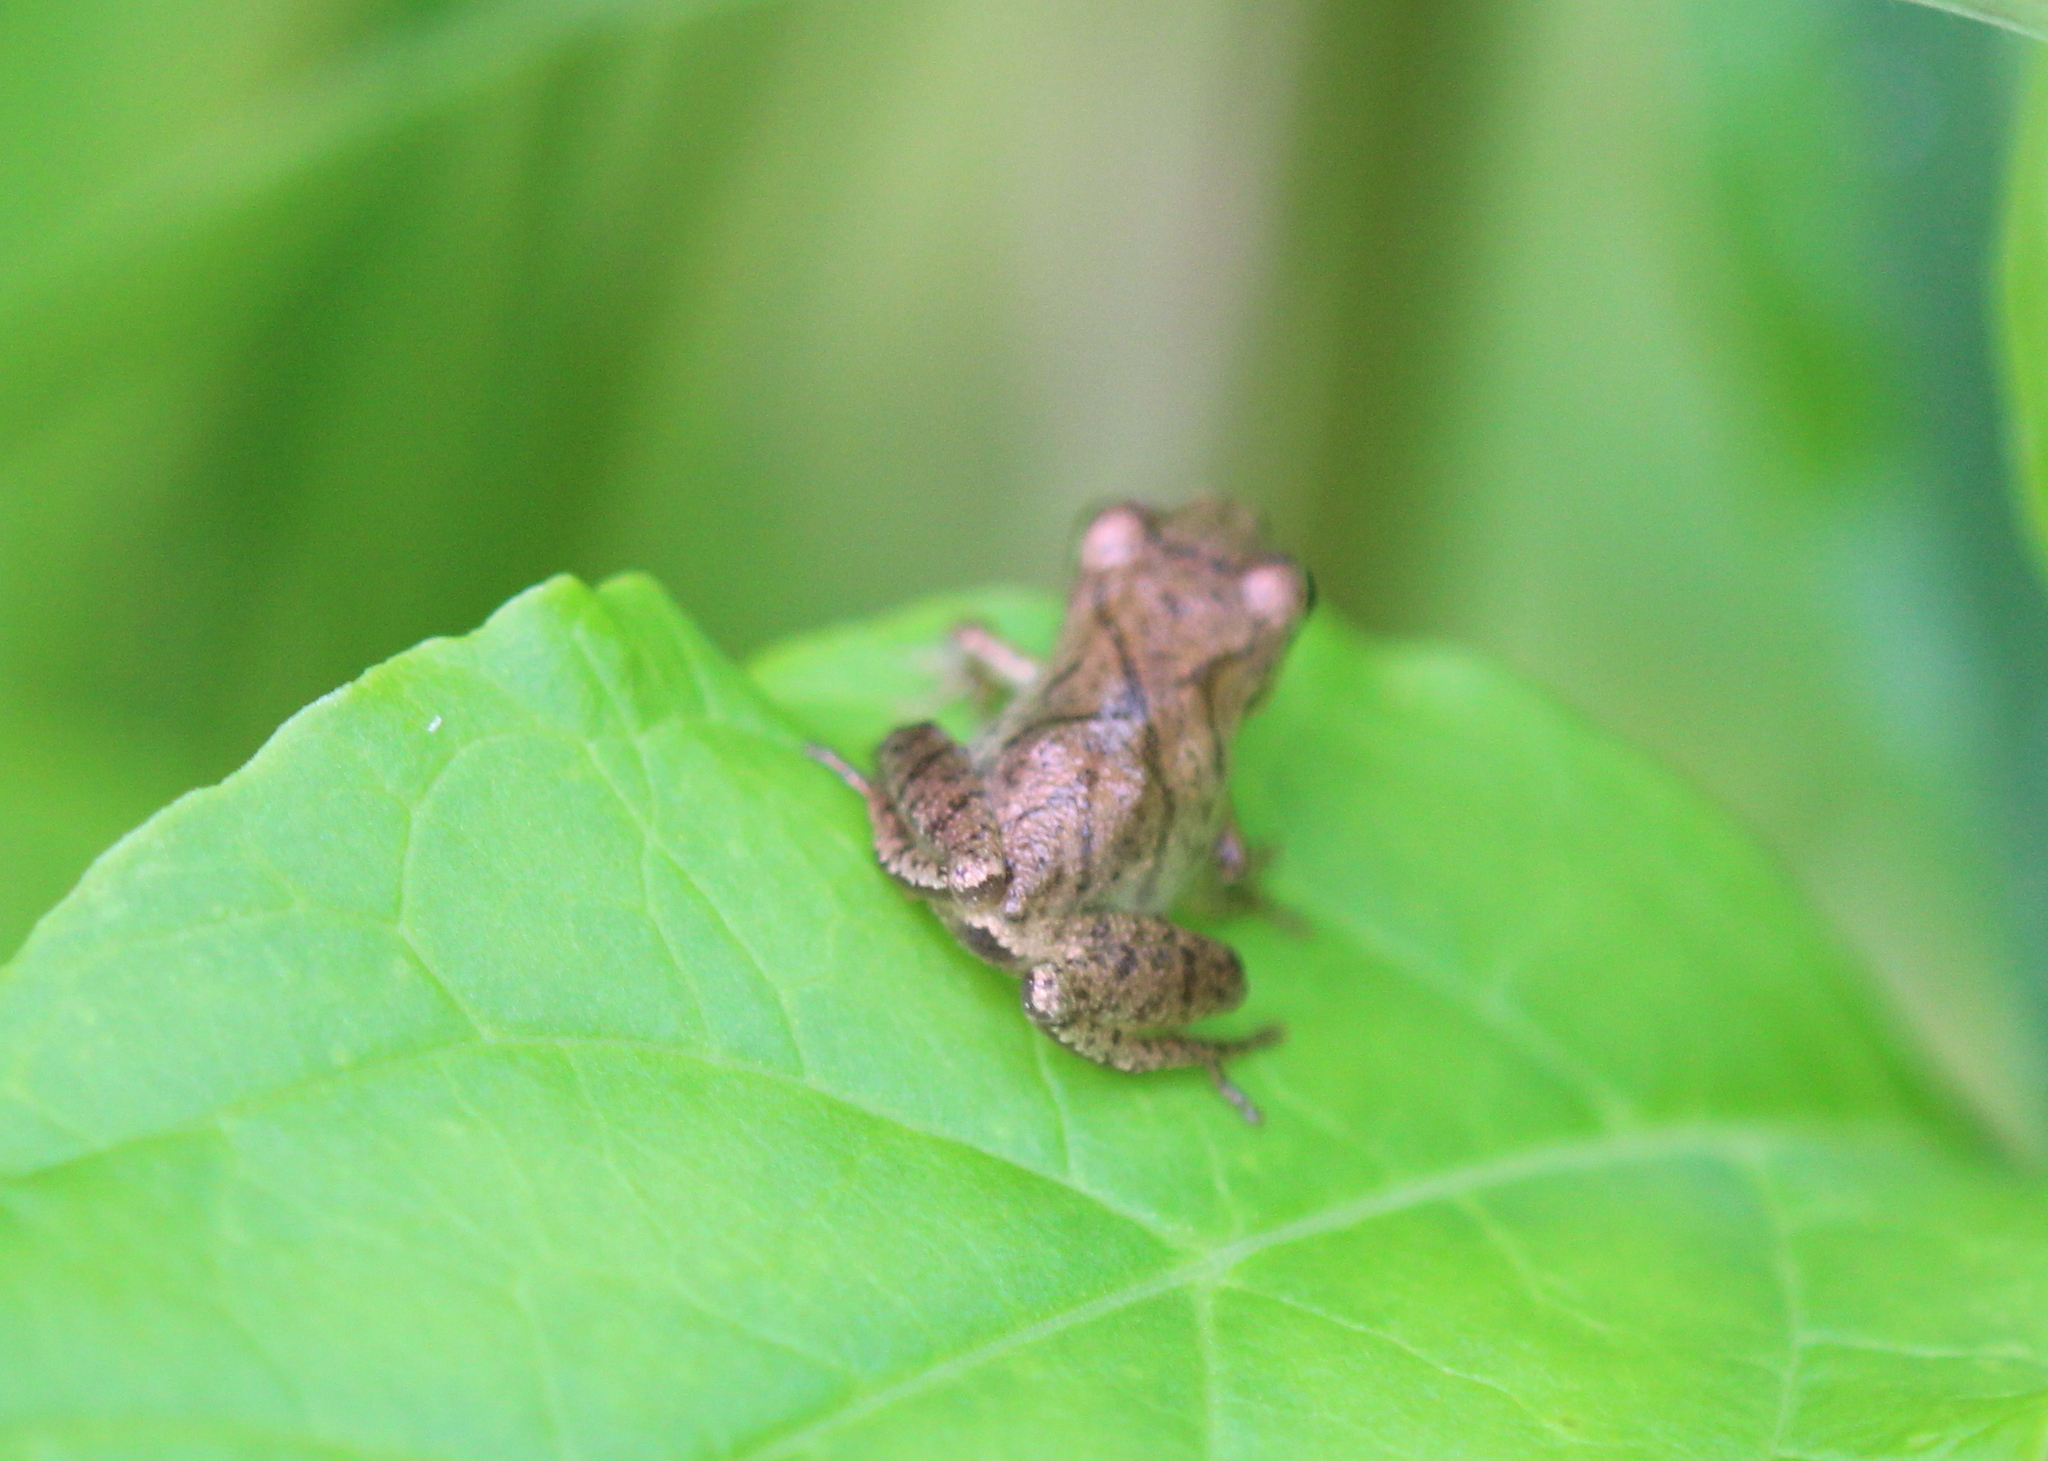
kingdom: Animalia
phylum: Chordata
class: Amphibia
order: Anura
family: Hylidae
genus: Pseudacris
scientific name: Pseudacris crucifer
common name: Spring peeper
